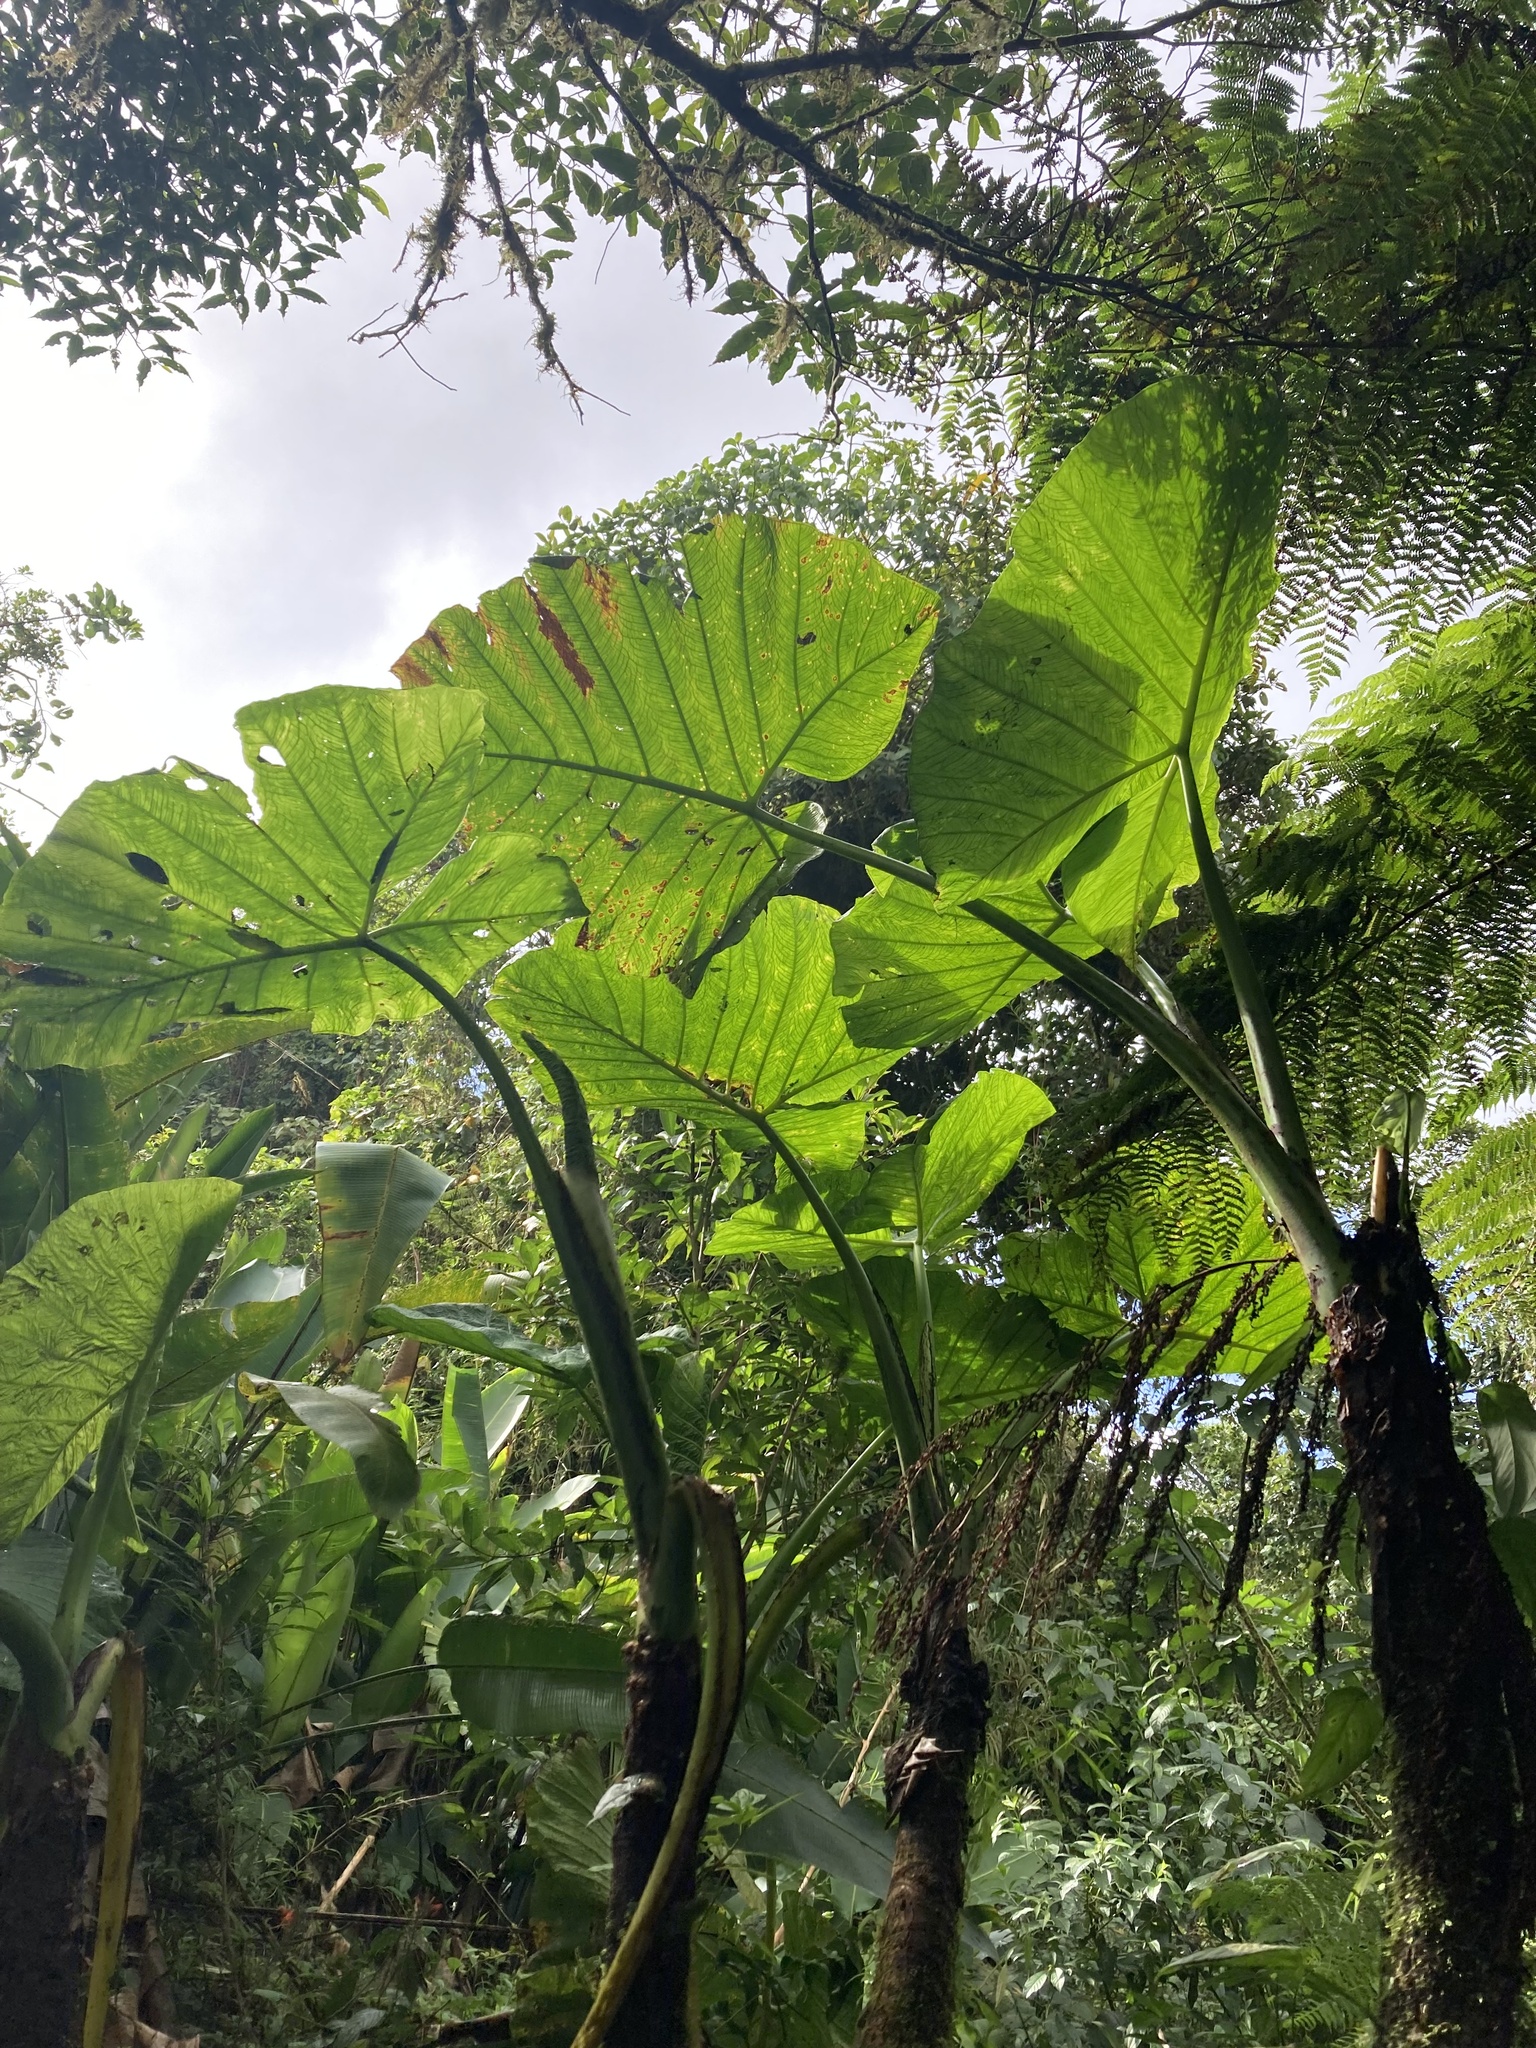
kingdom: Plantae
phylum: Tracheophyta
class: Liliopsida
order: Alismatales
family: Araceae
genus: Xanthosoma
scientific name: Xanthosoma undipes
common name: Tall elephant's ear
